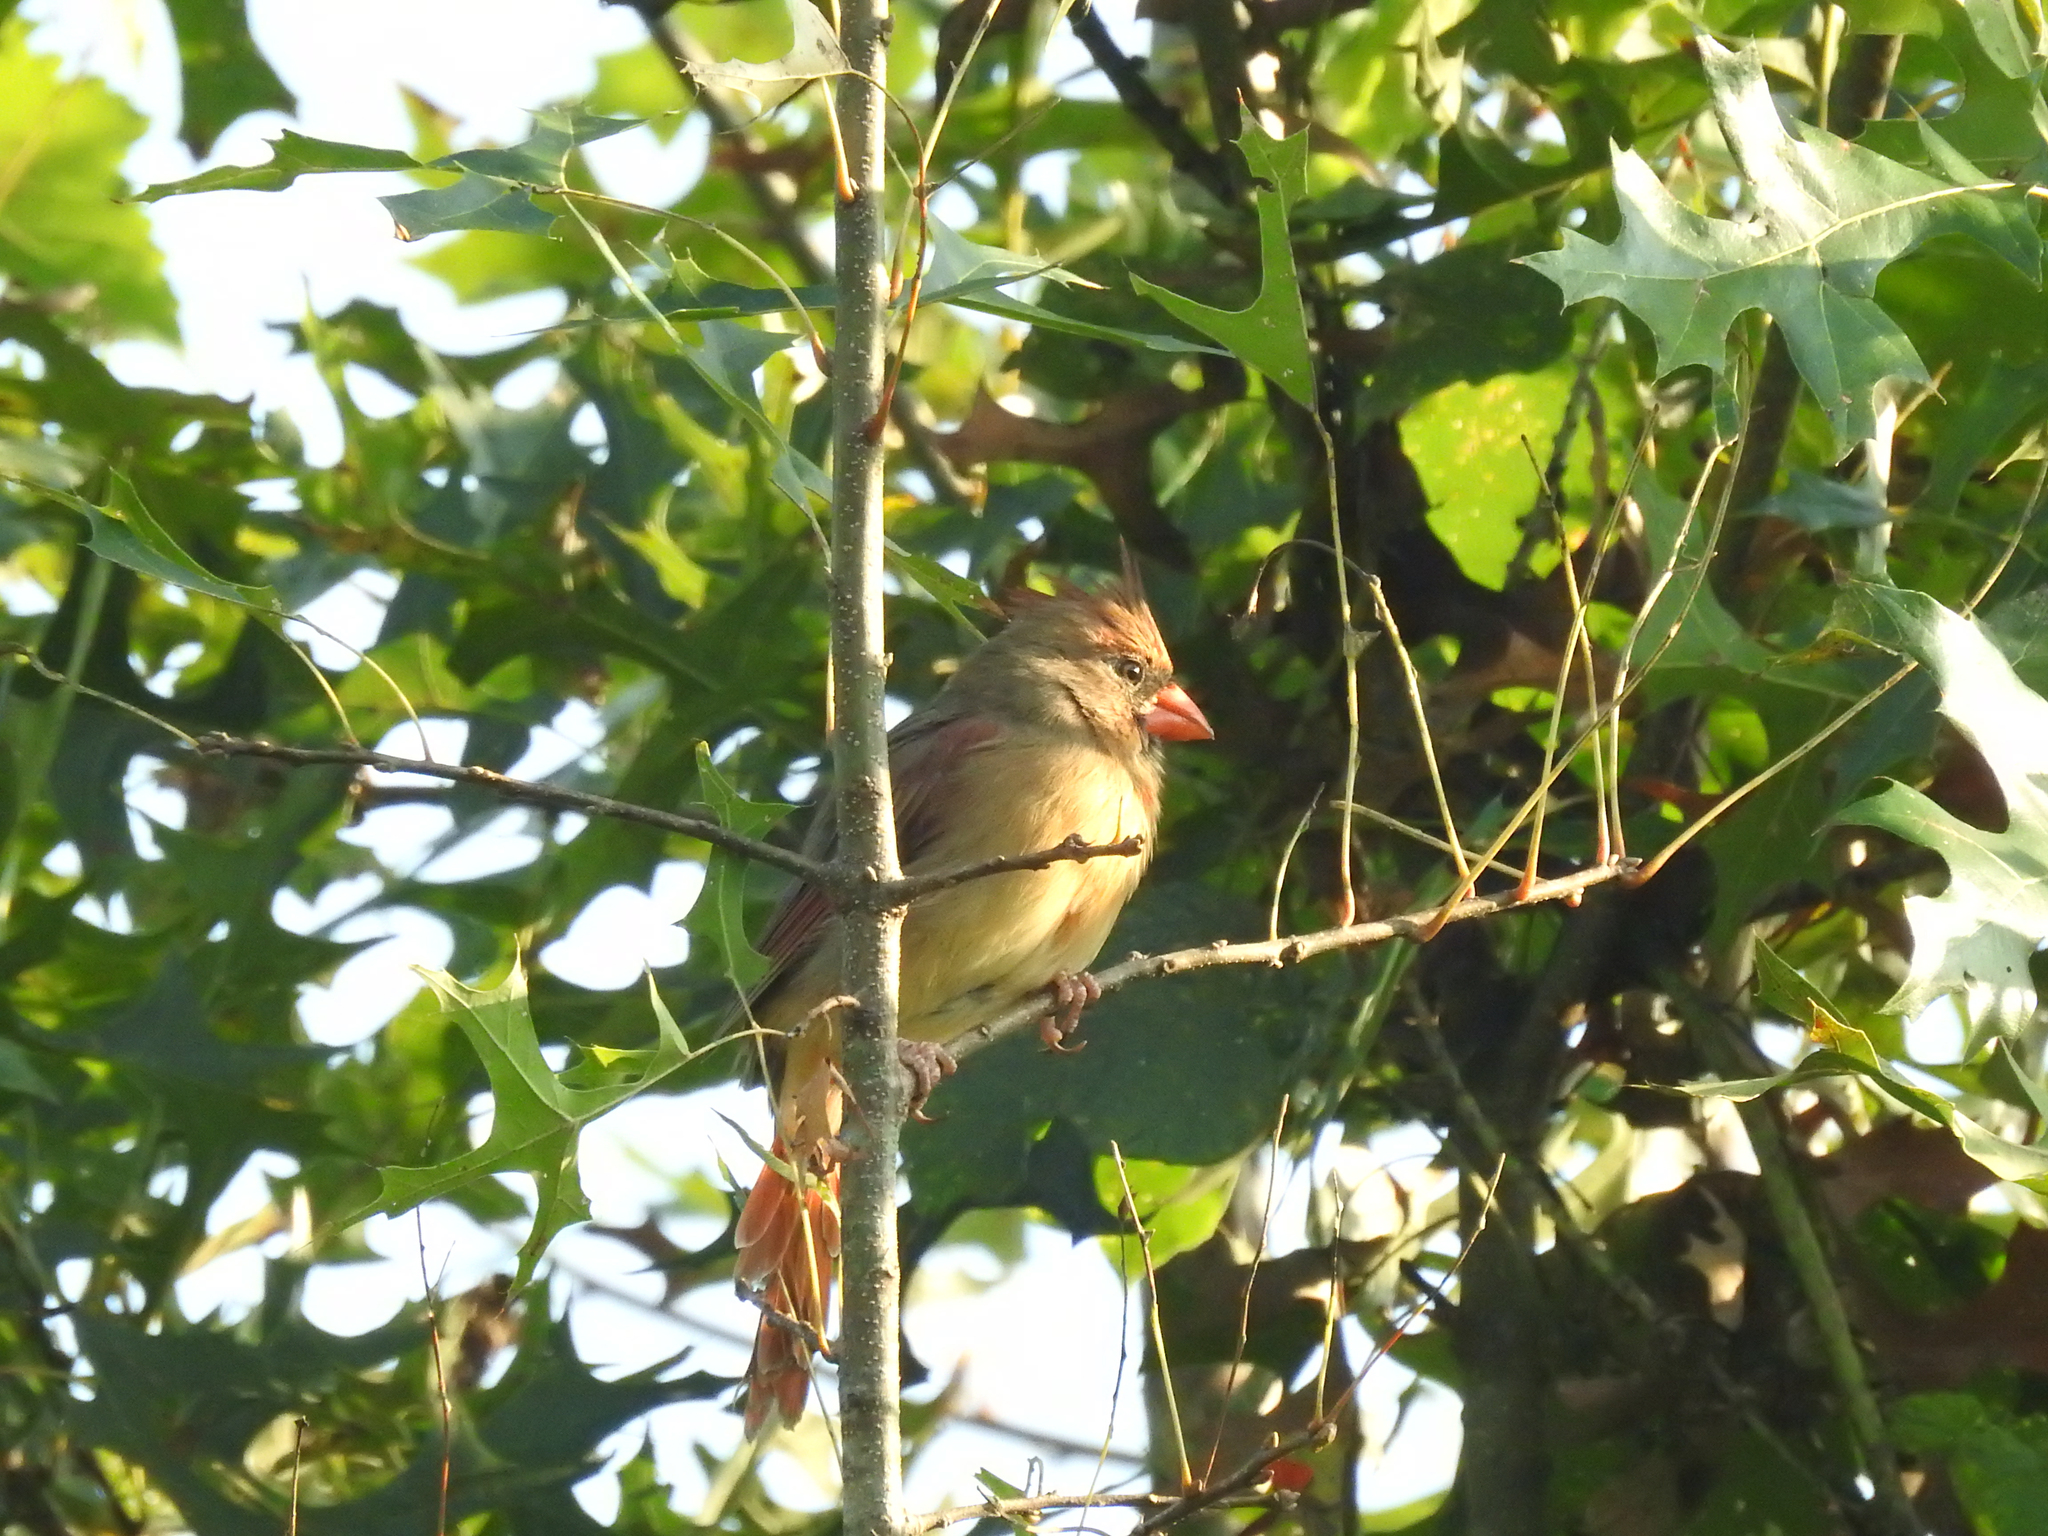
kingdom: Animalia
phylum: Chordata
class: Aves
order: Passeriformes
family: Cardinalidae
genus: Cardinalis
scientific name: Cardinalis cardinalis
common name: Northern cardinal
